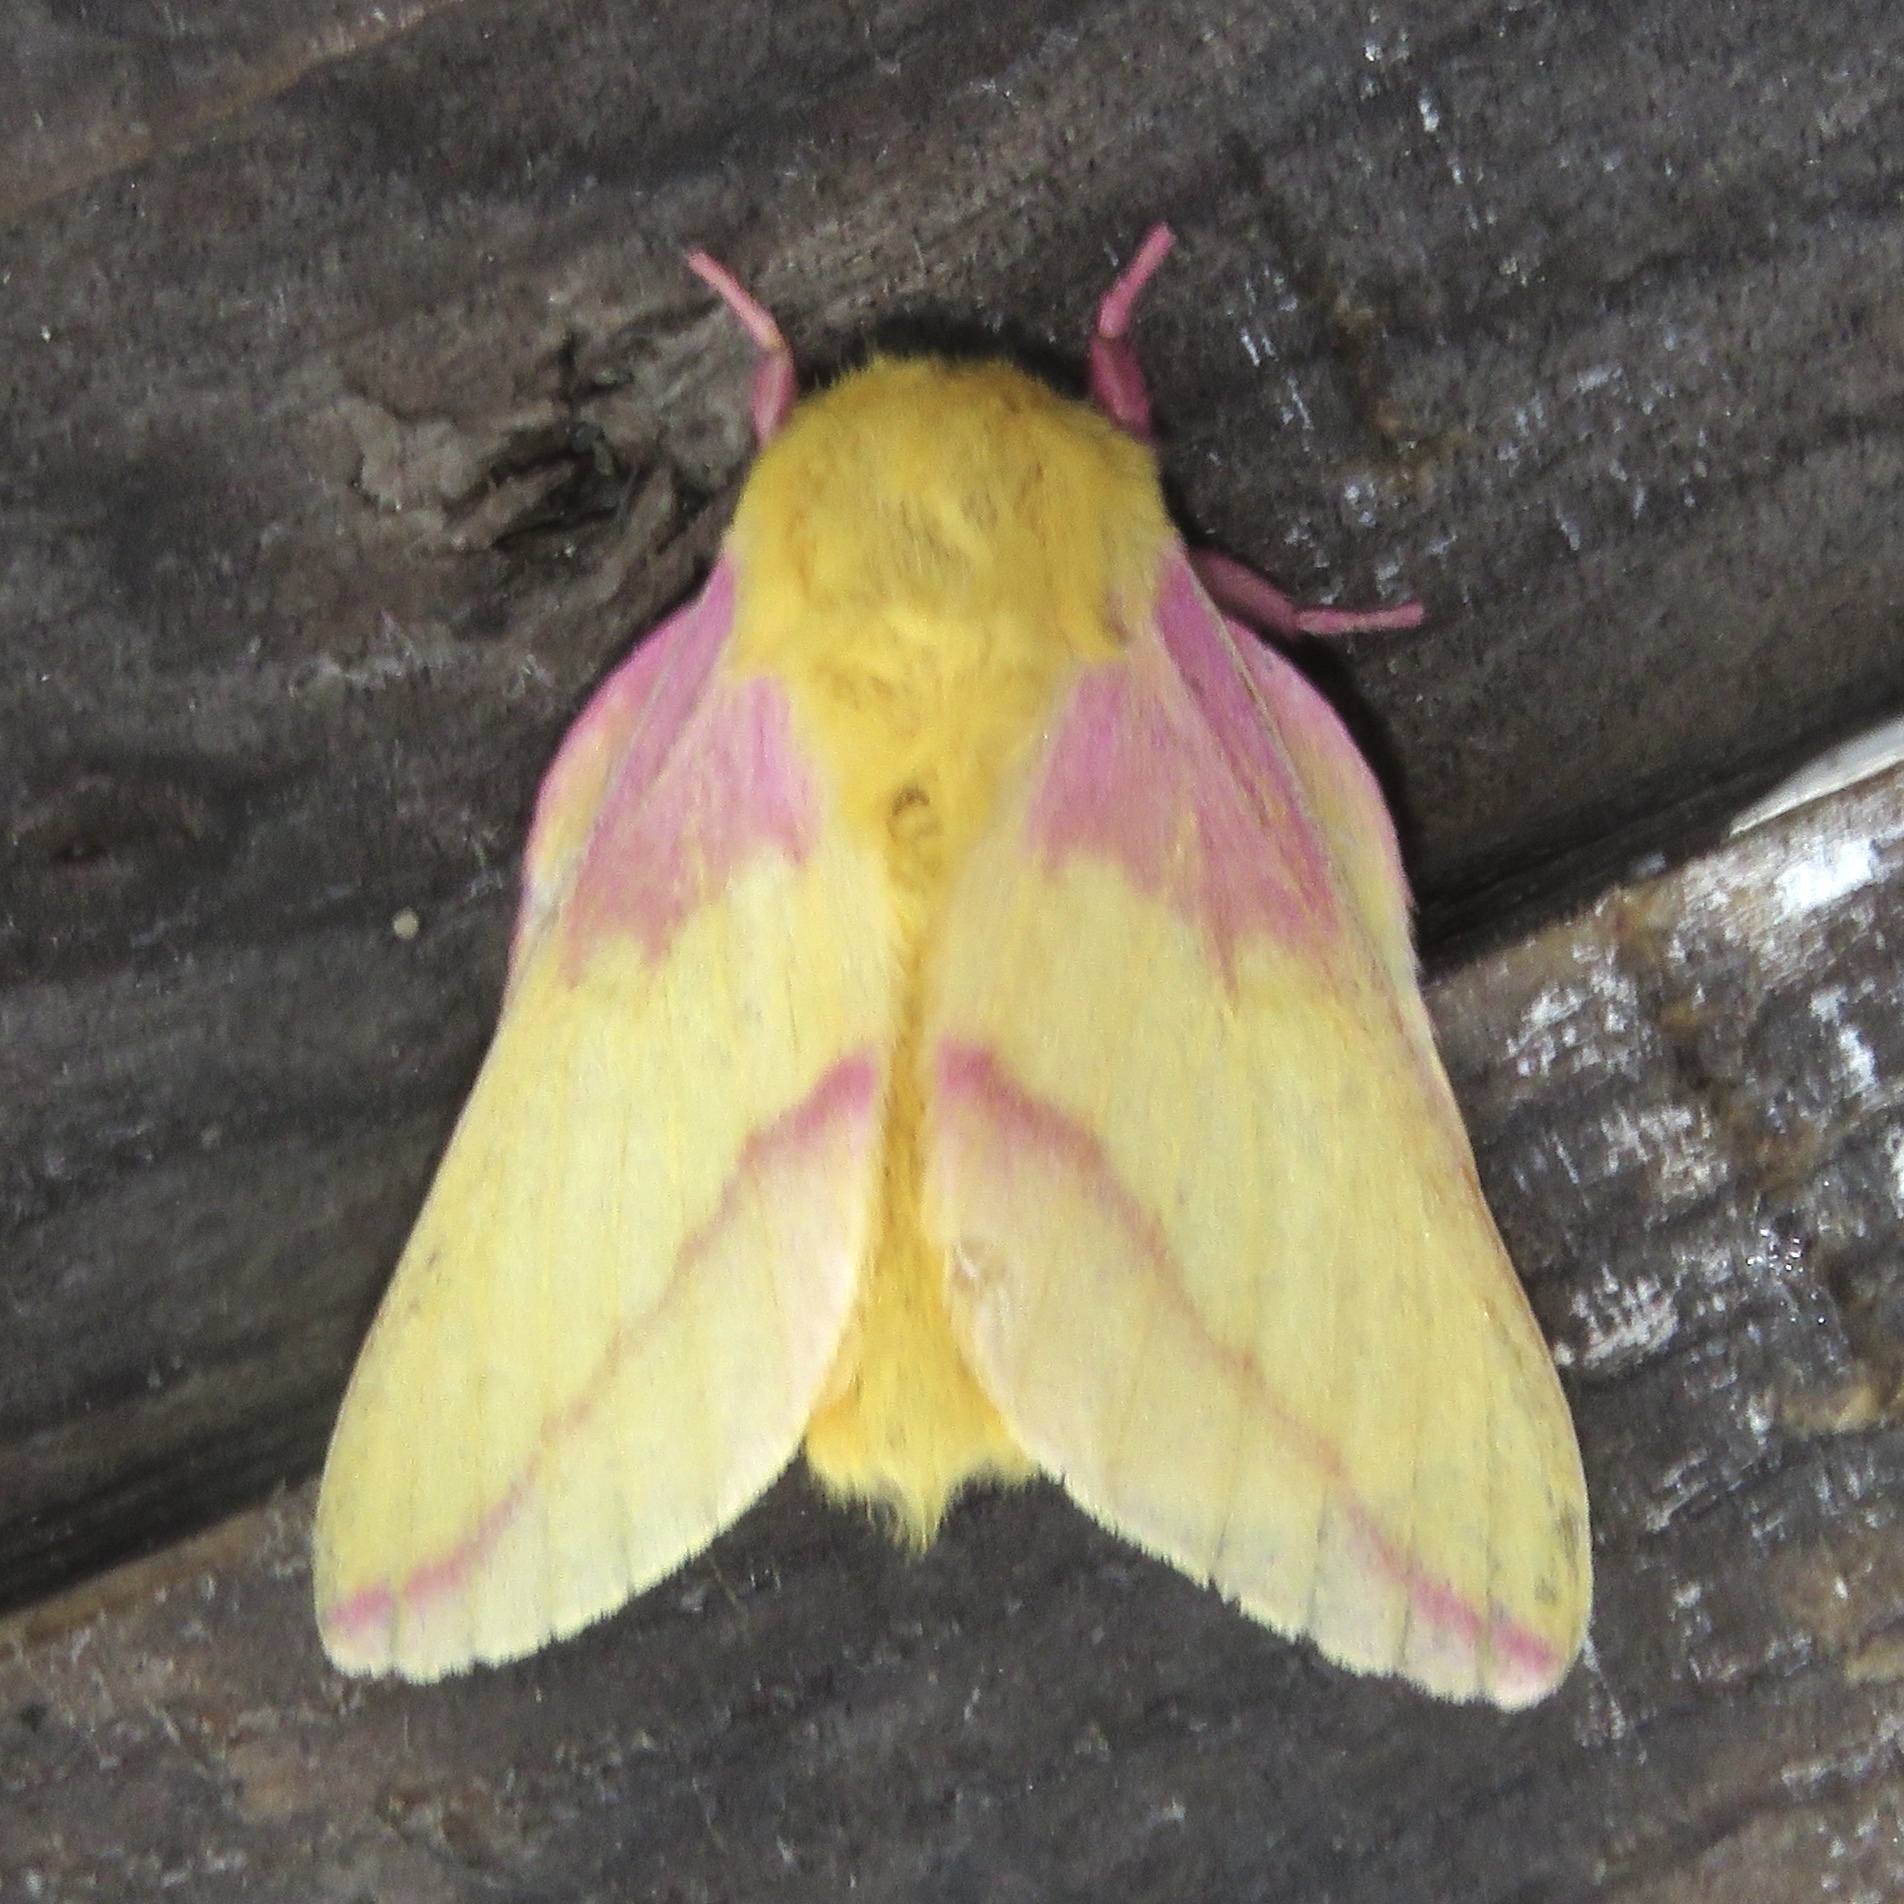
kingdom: Animalia
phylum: Arthropoda
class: Insecta
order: Lepidoptera
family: Saturniidae
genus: Dryocampa
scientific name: Dryocampa rubicunda
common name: Rosy maple moth
